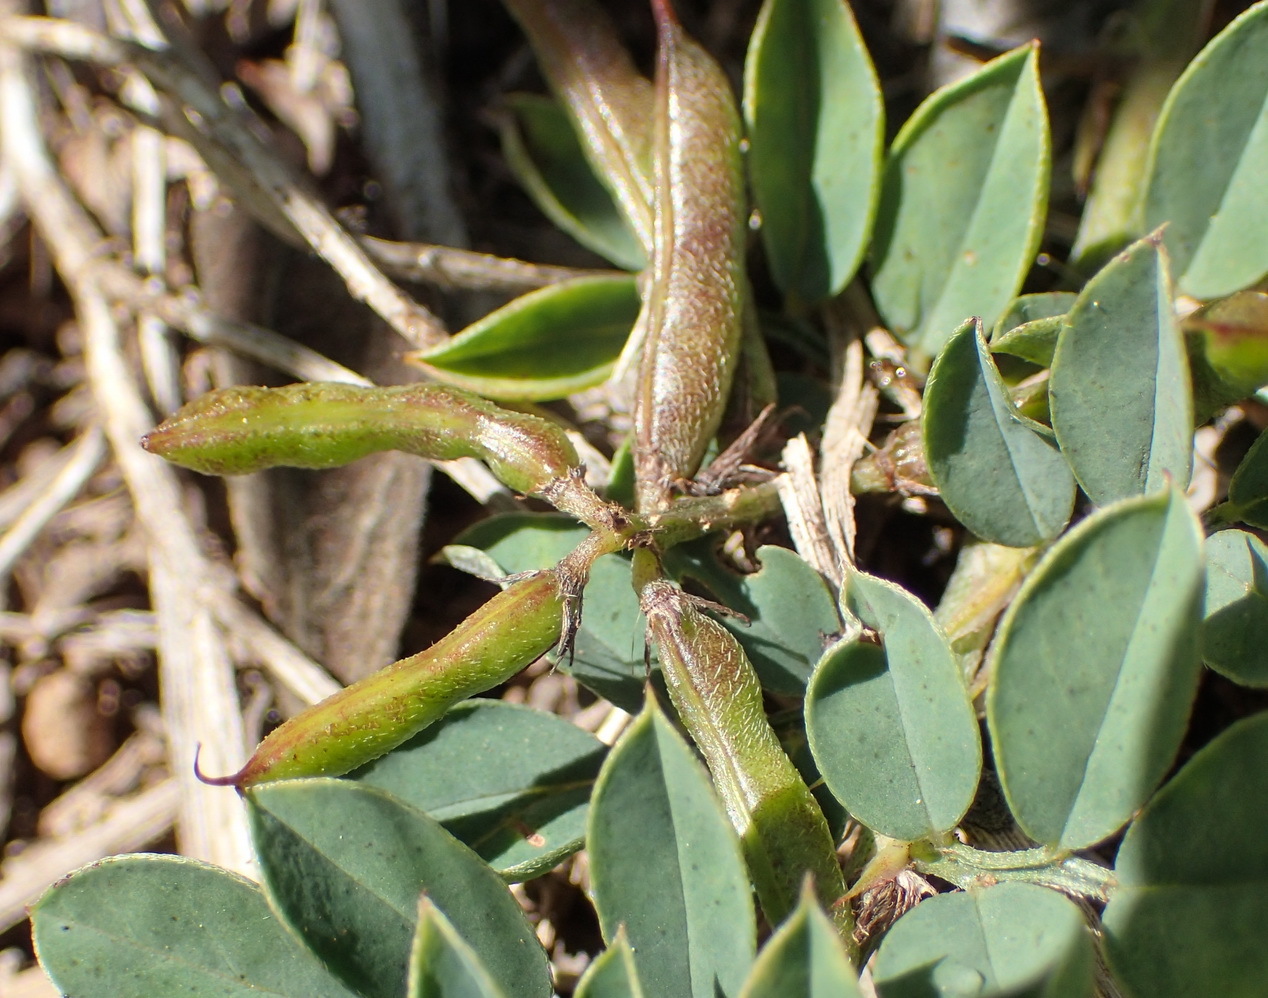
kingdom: Plantae
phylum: Tracheophyta
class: Magnoliopsida
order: Fabales
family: Fabaceae
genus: Indigofera
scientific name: Indigofera oxalidea
